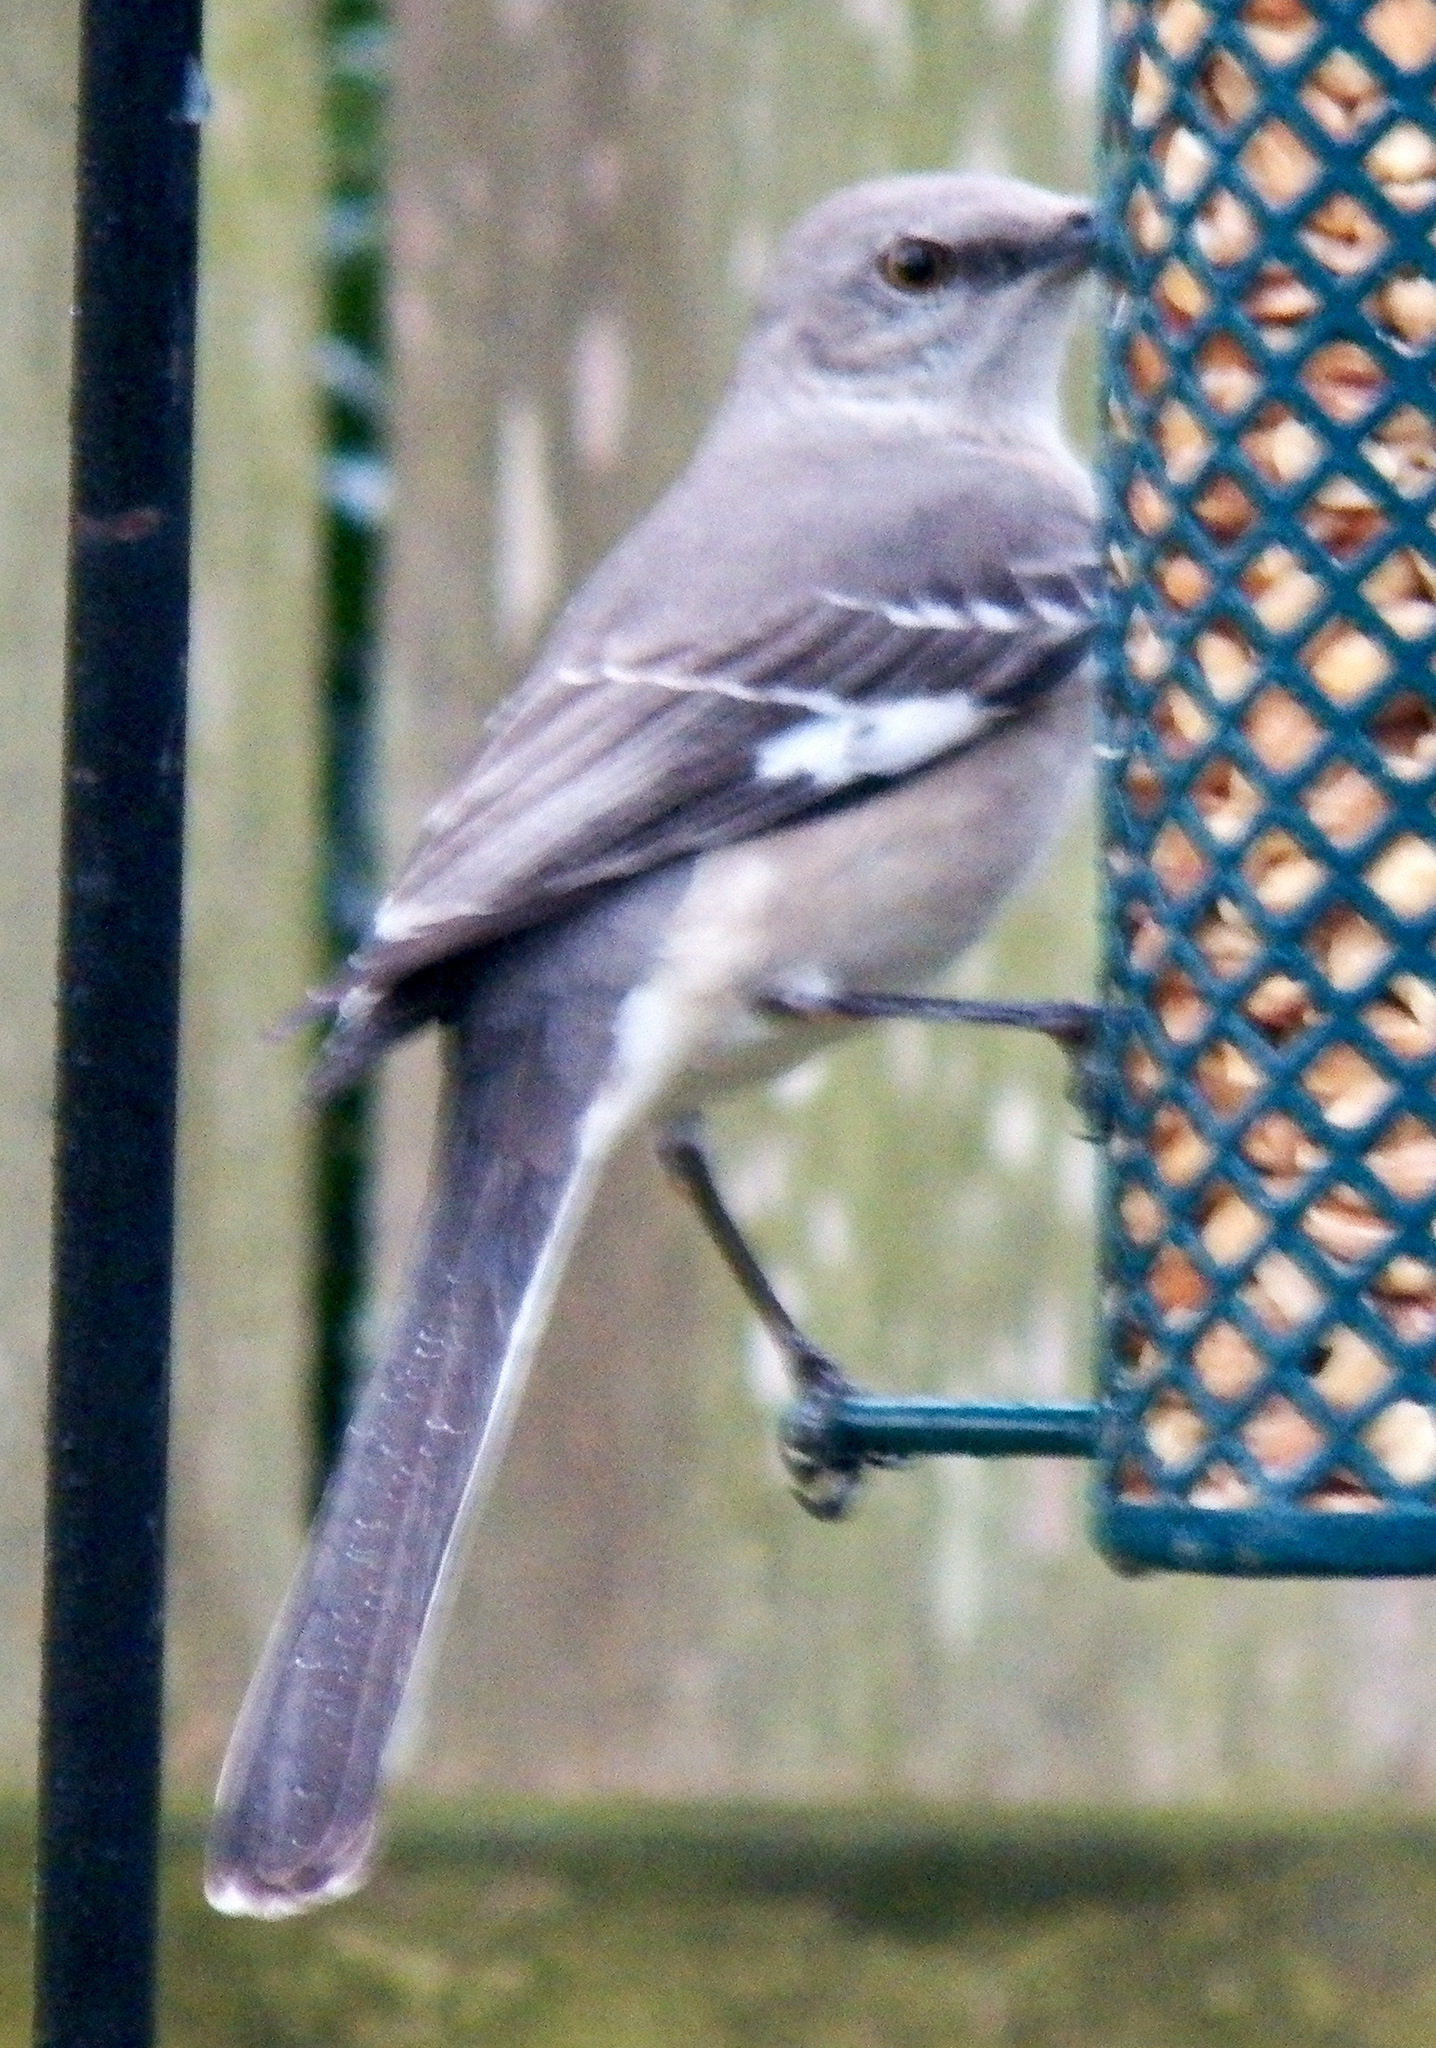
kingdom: Animalia
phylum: Chordata
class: Aves
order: Passeriformes
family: Mimidae
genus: Mimus
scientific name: Mimus polyglottos
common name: Northern mockingbird
